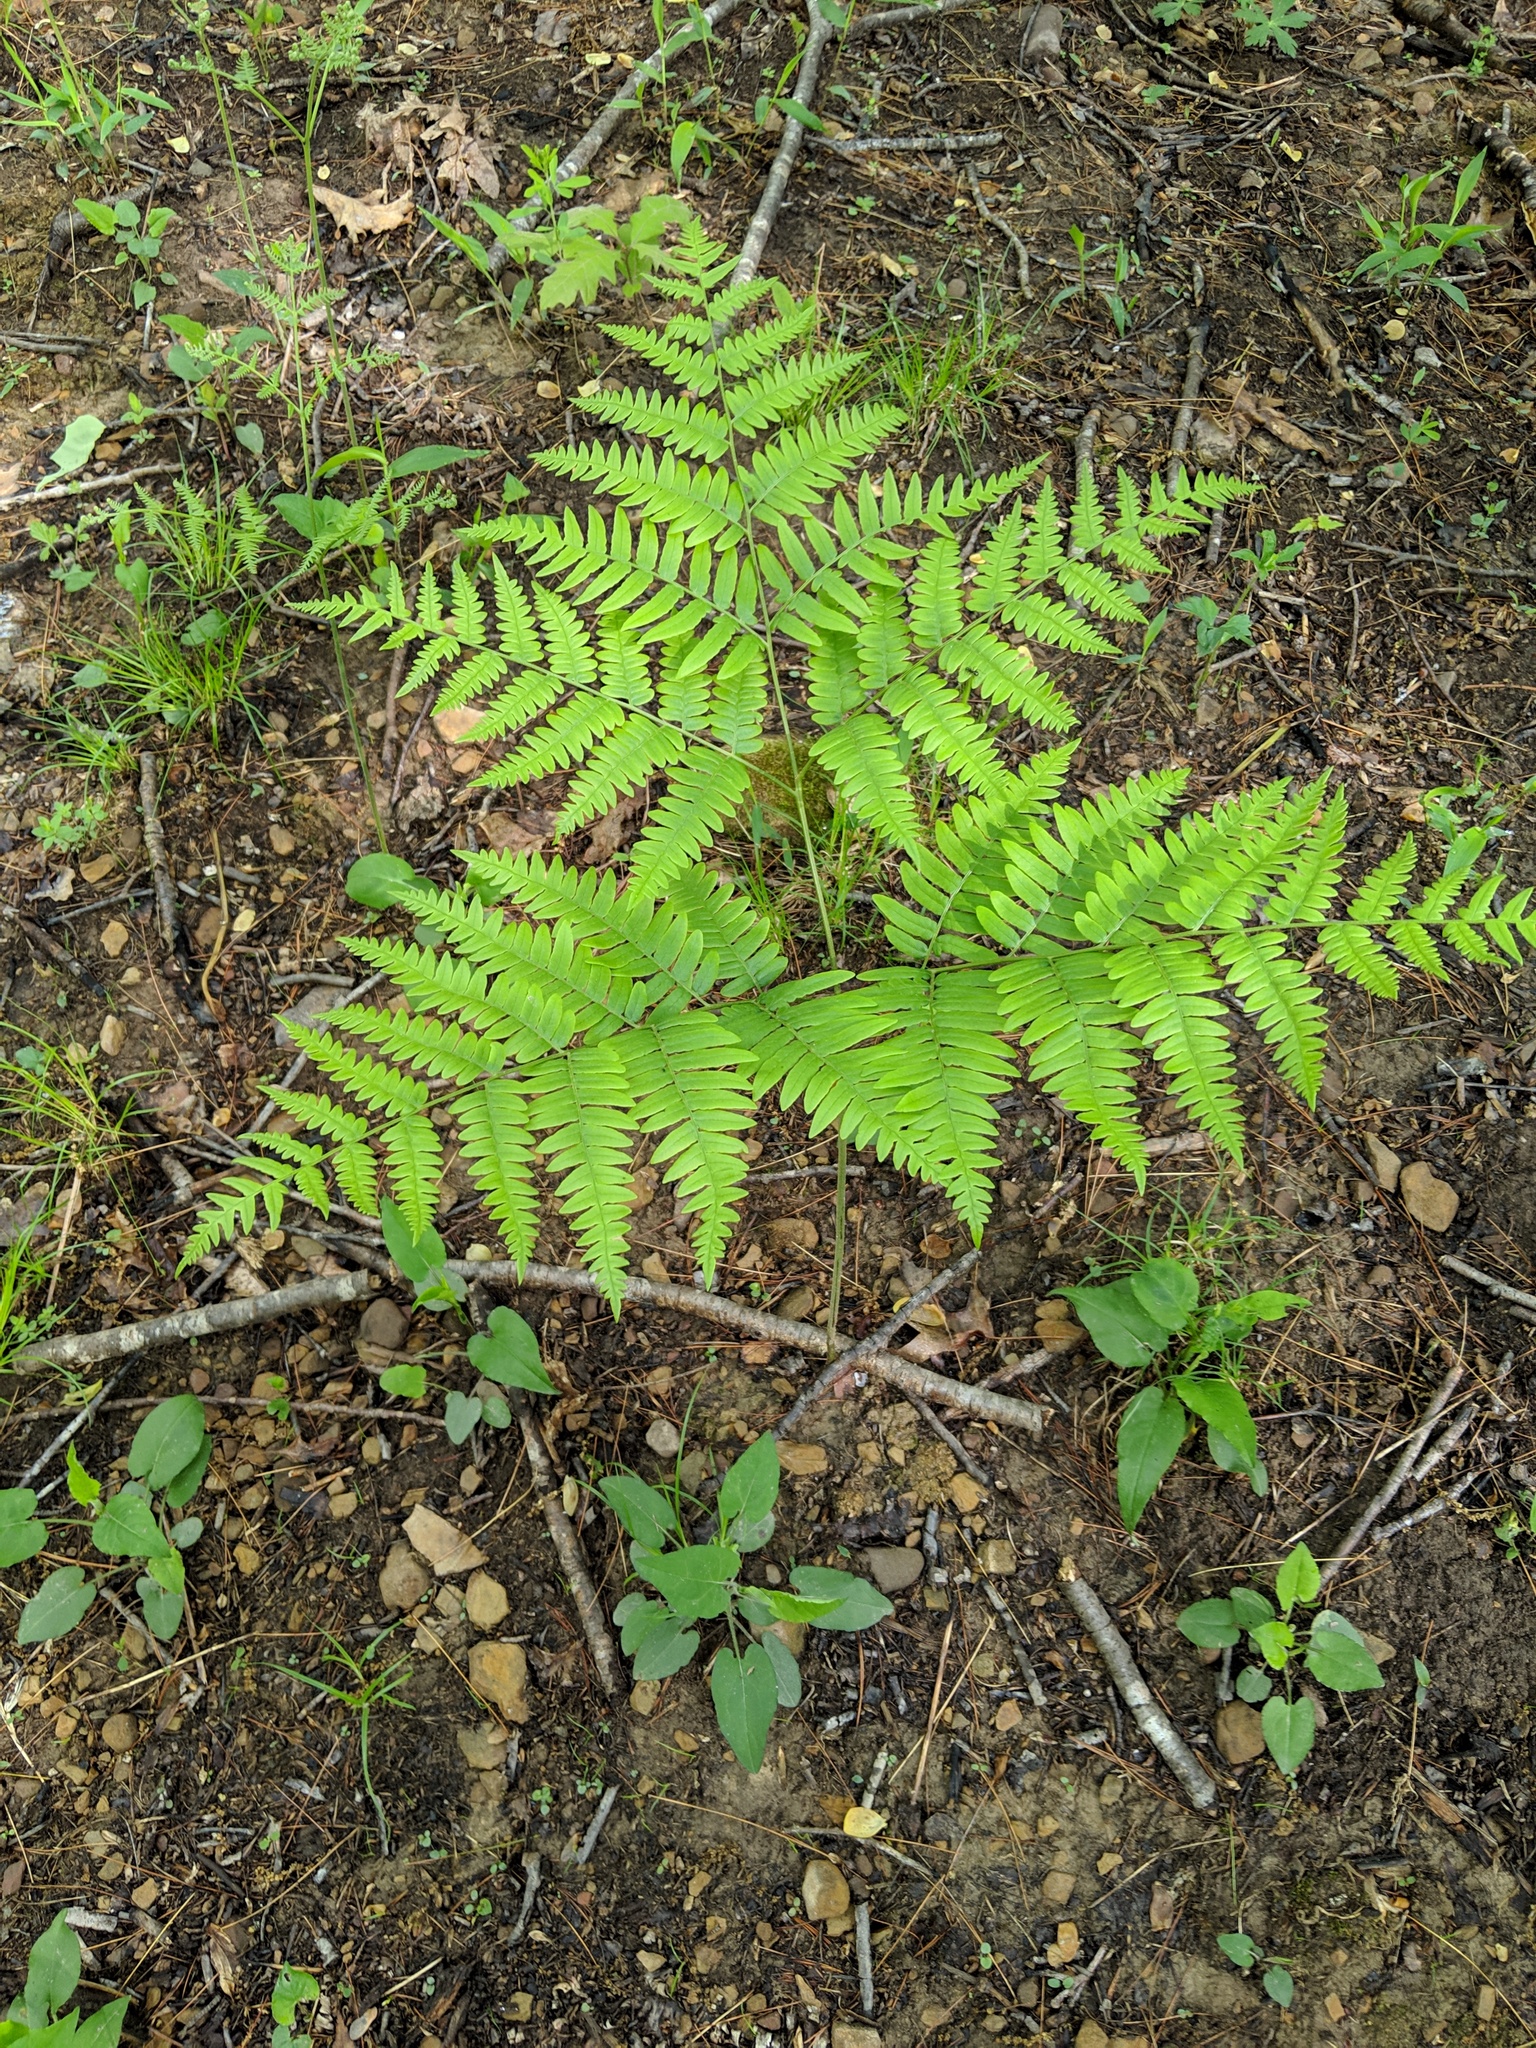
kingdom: Plantae
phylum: Tracheophyta
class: Polypodiopsida
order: Polypodiales
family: Dennstaedtiaceae
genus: Pteridium
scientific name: Pteridium aquilinum
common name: Bracken
